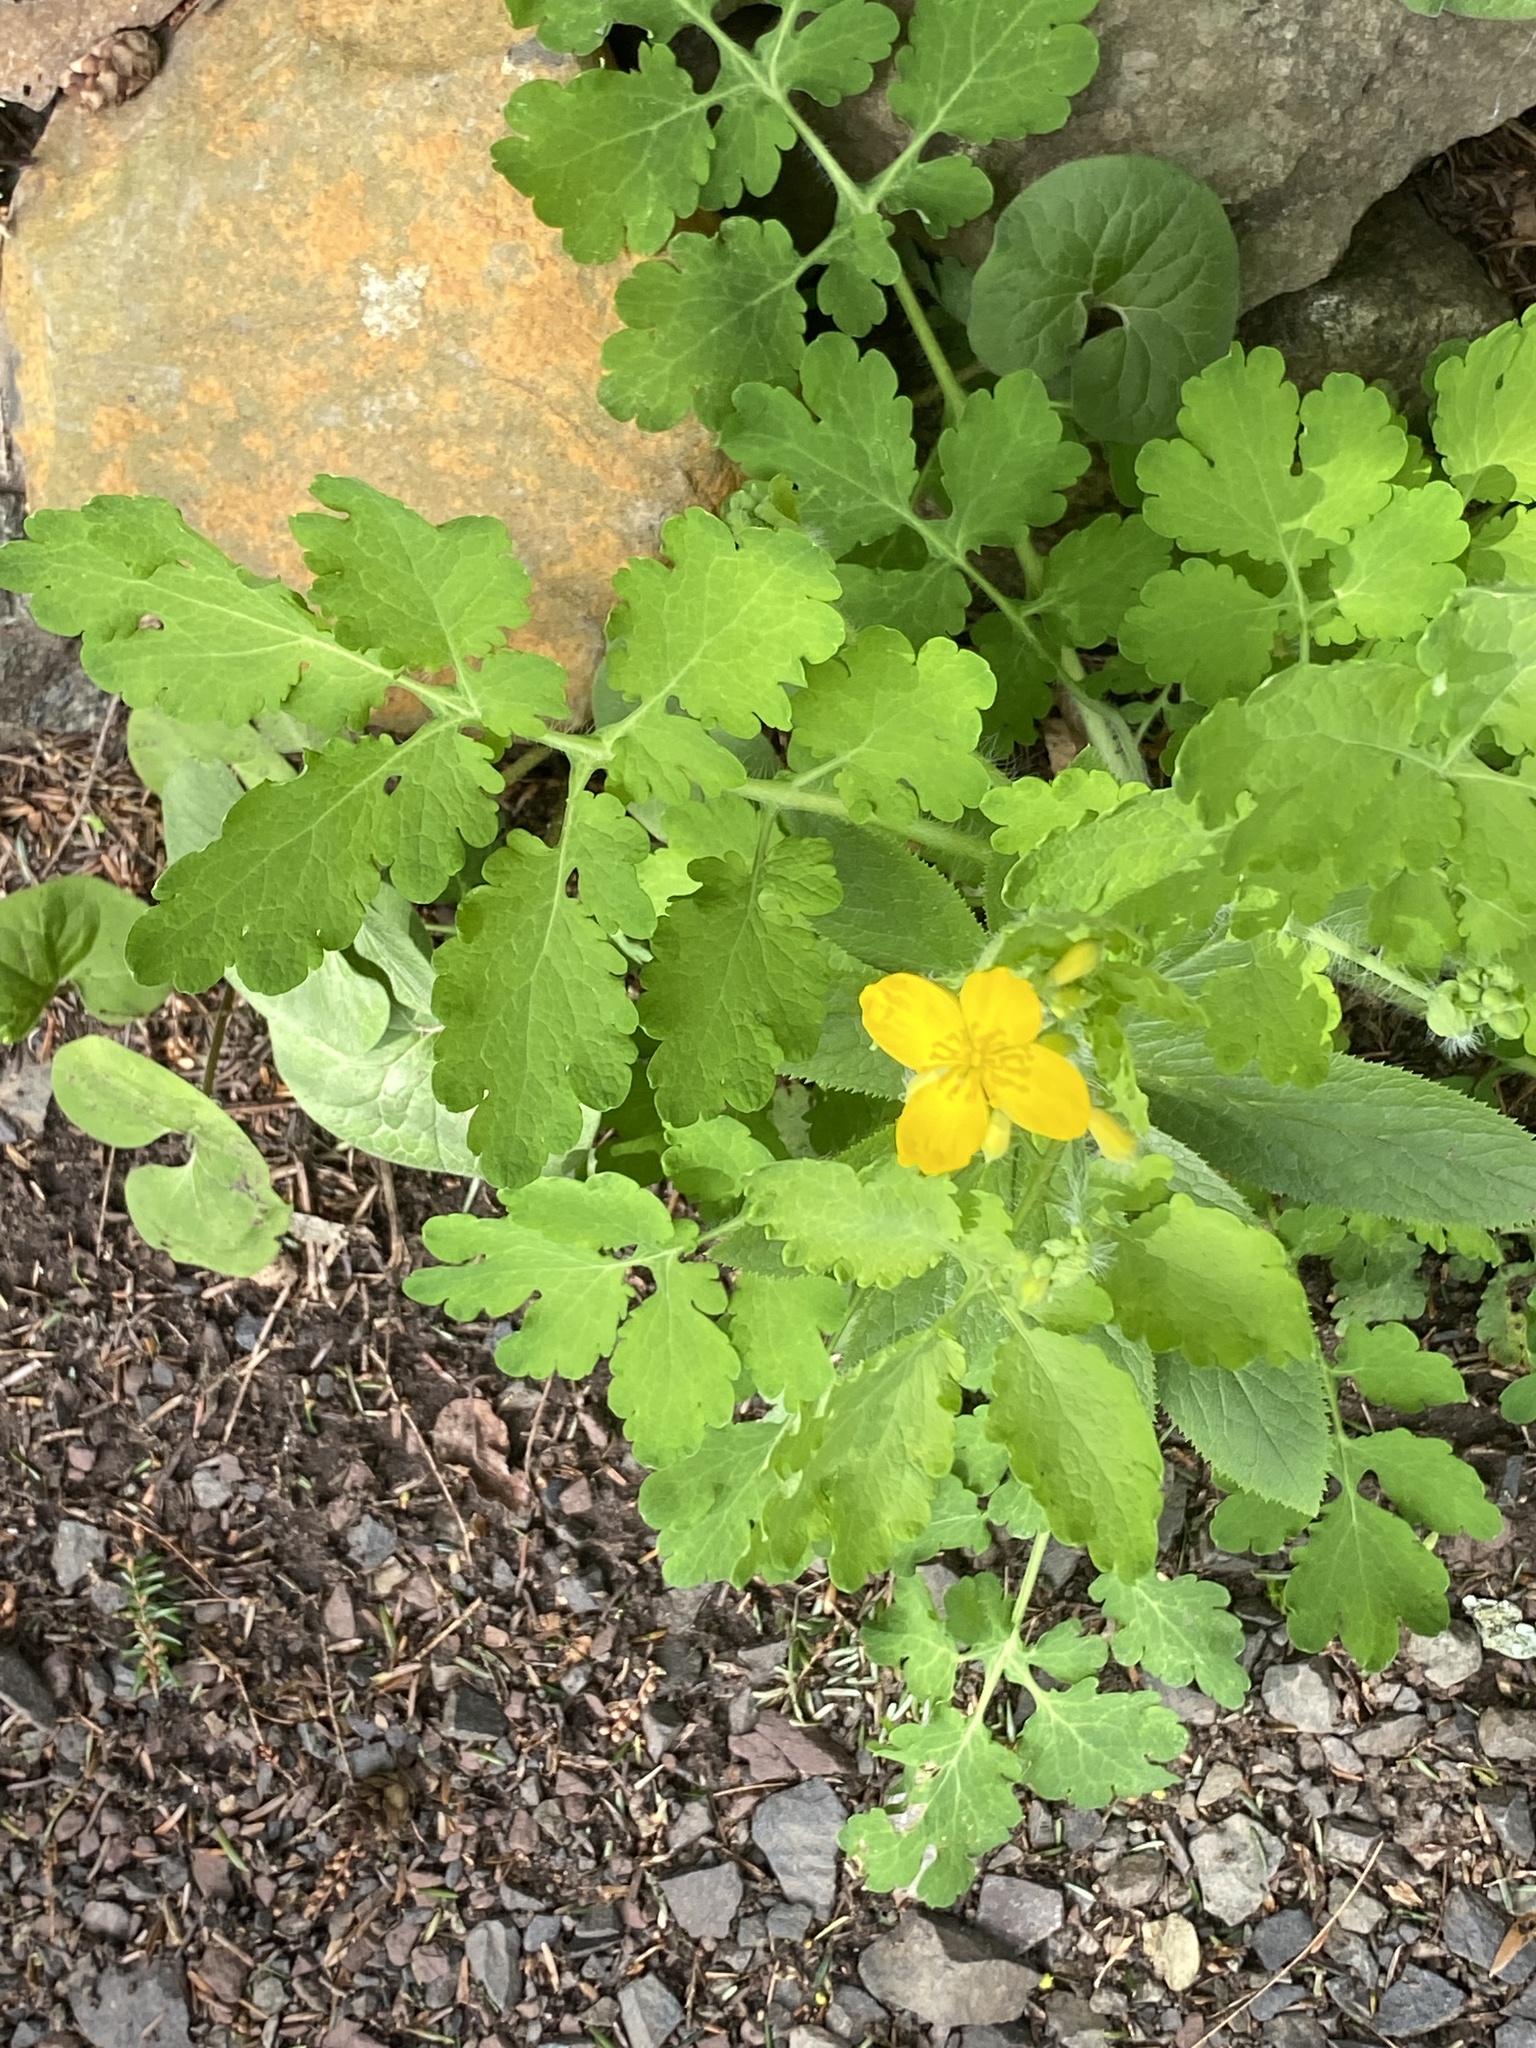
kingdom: Plantae
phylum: Tracheophyta
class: Magnoliopsida
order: Ranunculales
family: Papaveraceae
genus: Chelidonium
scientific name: Chelidonium majus
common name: Greater celandine
